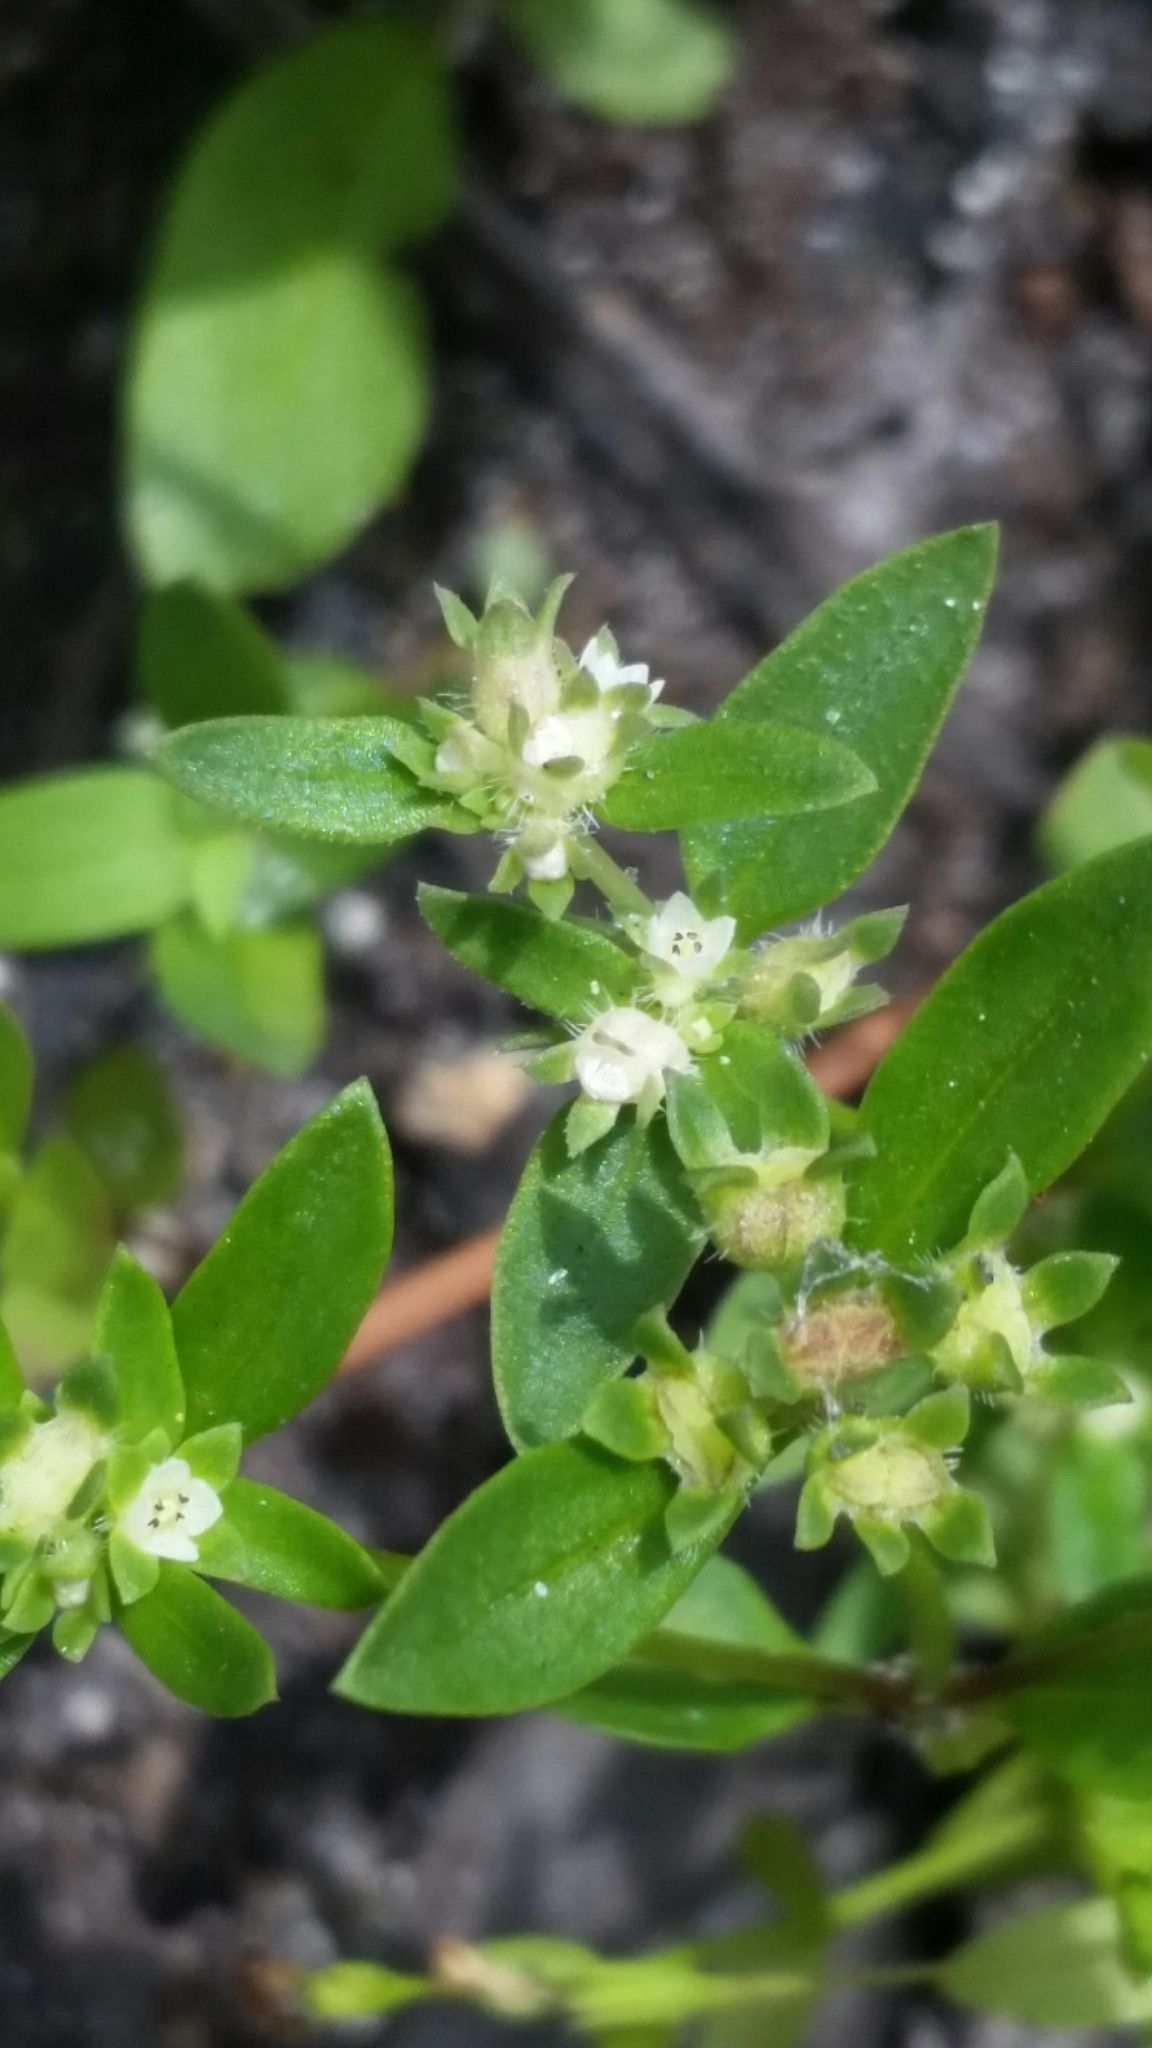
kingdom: Plantae
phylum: Tracheophyta
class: Magnoliopsida
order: Gentianales
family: Rubiaceae
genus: Edrastima
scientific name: Edrastima uniflora
